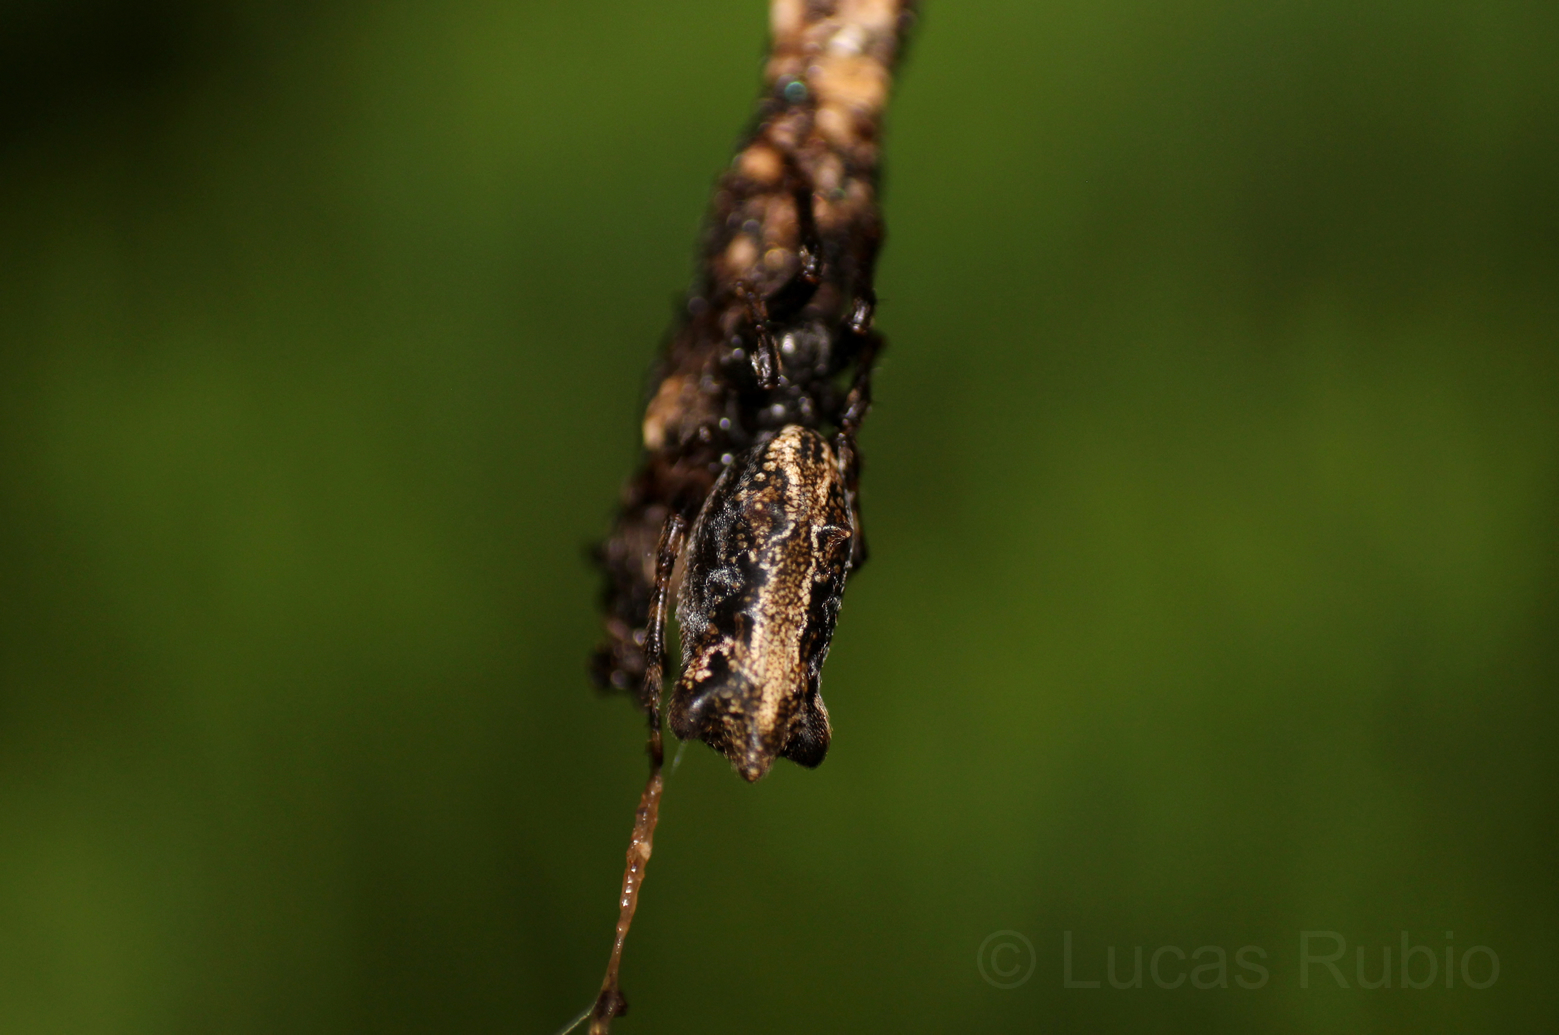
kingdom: Animalia
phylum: Arthropoda
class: Arachnida
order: Araneae
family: Araneidae
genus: Cyclosa
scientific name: Cyclosa bifurcata
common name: Orb weavers
